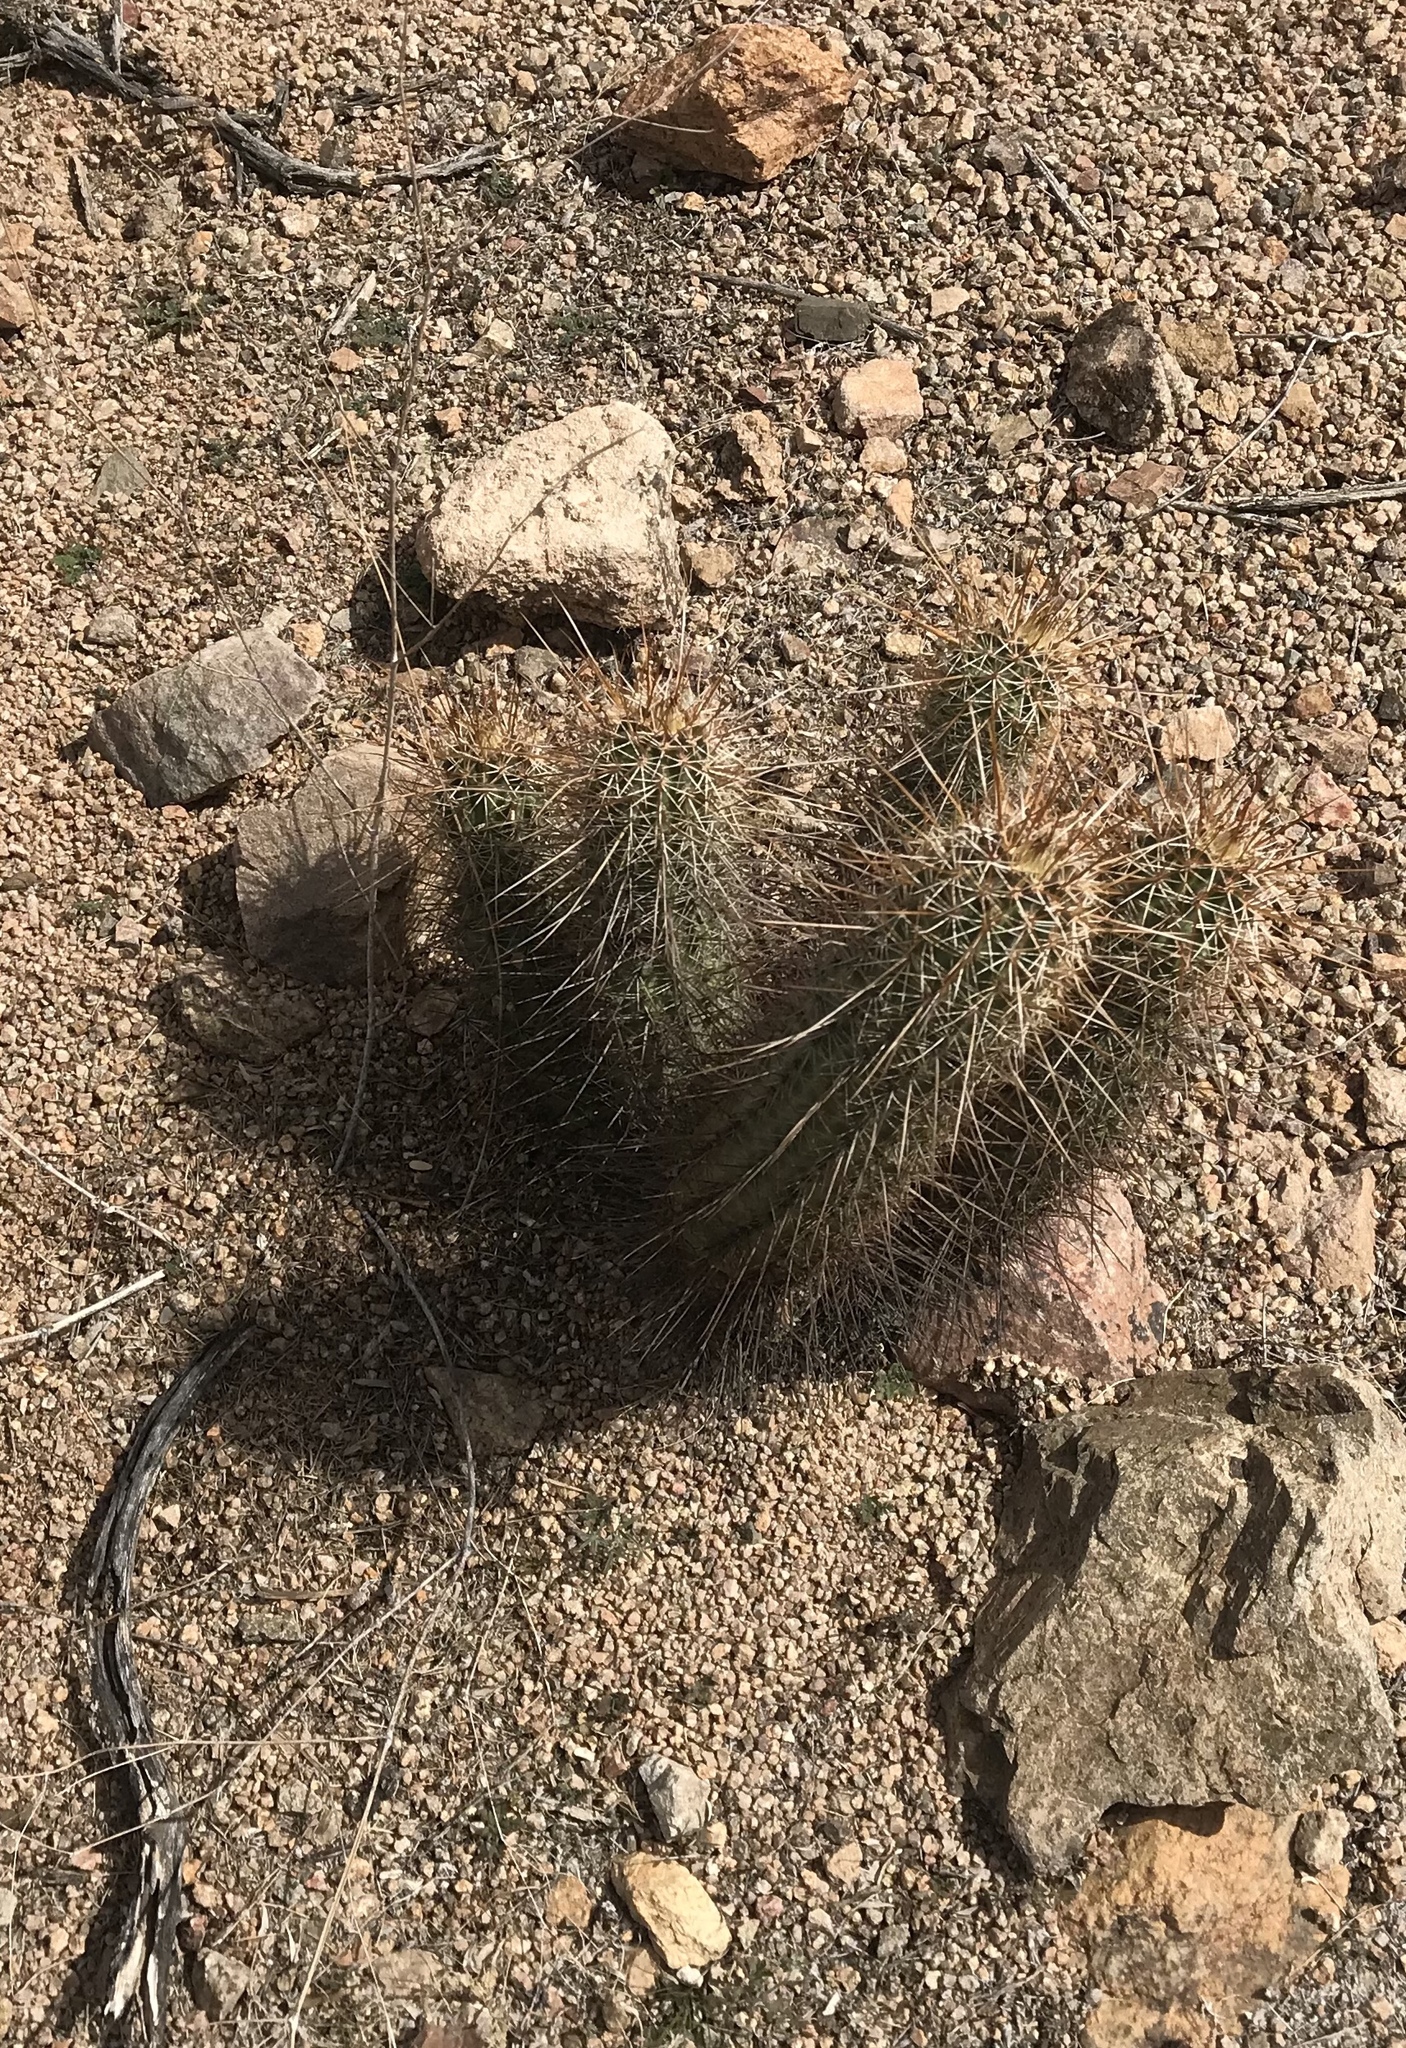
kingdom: Plantae
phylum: Tracheophyta
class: Magnoliopsida
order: Caryophyllales
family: Cactaceae
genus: Echinocereus
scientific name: Echinocereus fasciculatus
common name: Bundle hedgehog
